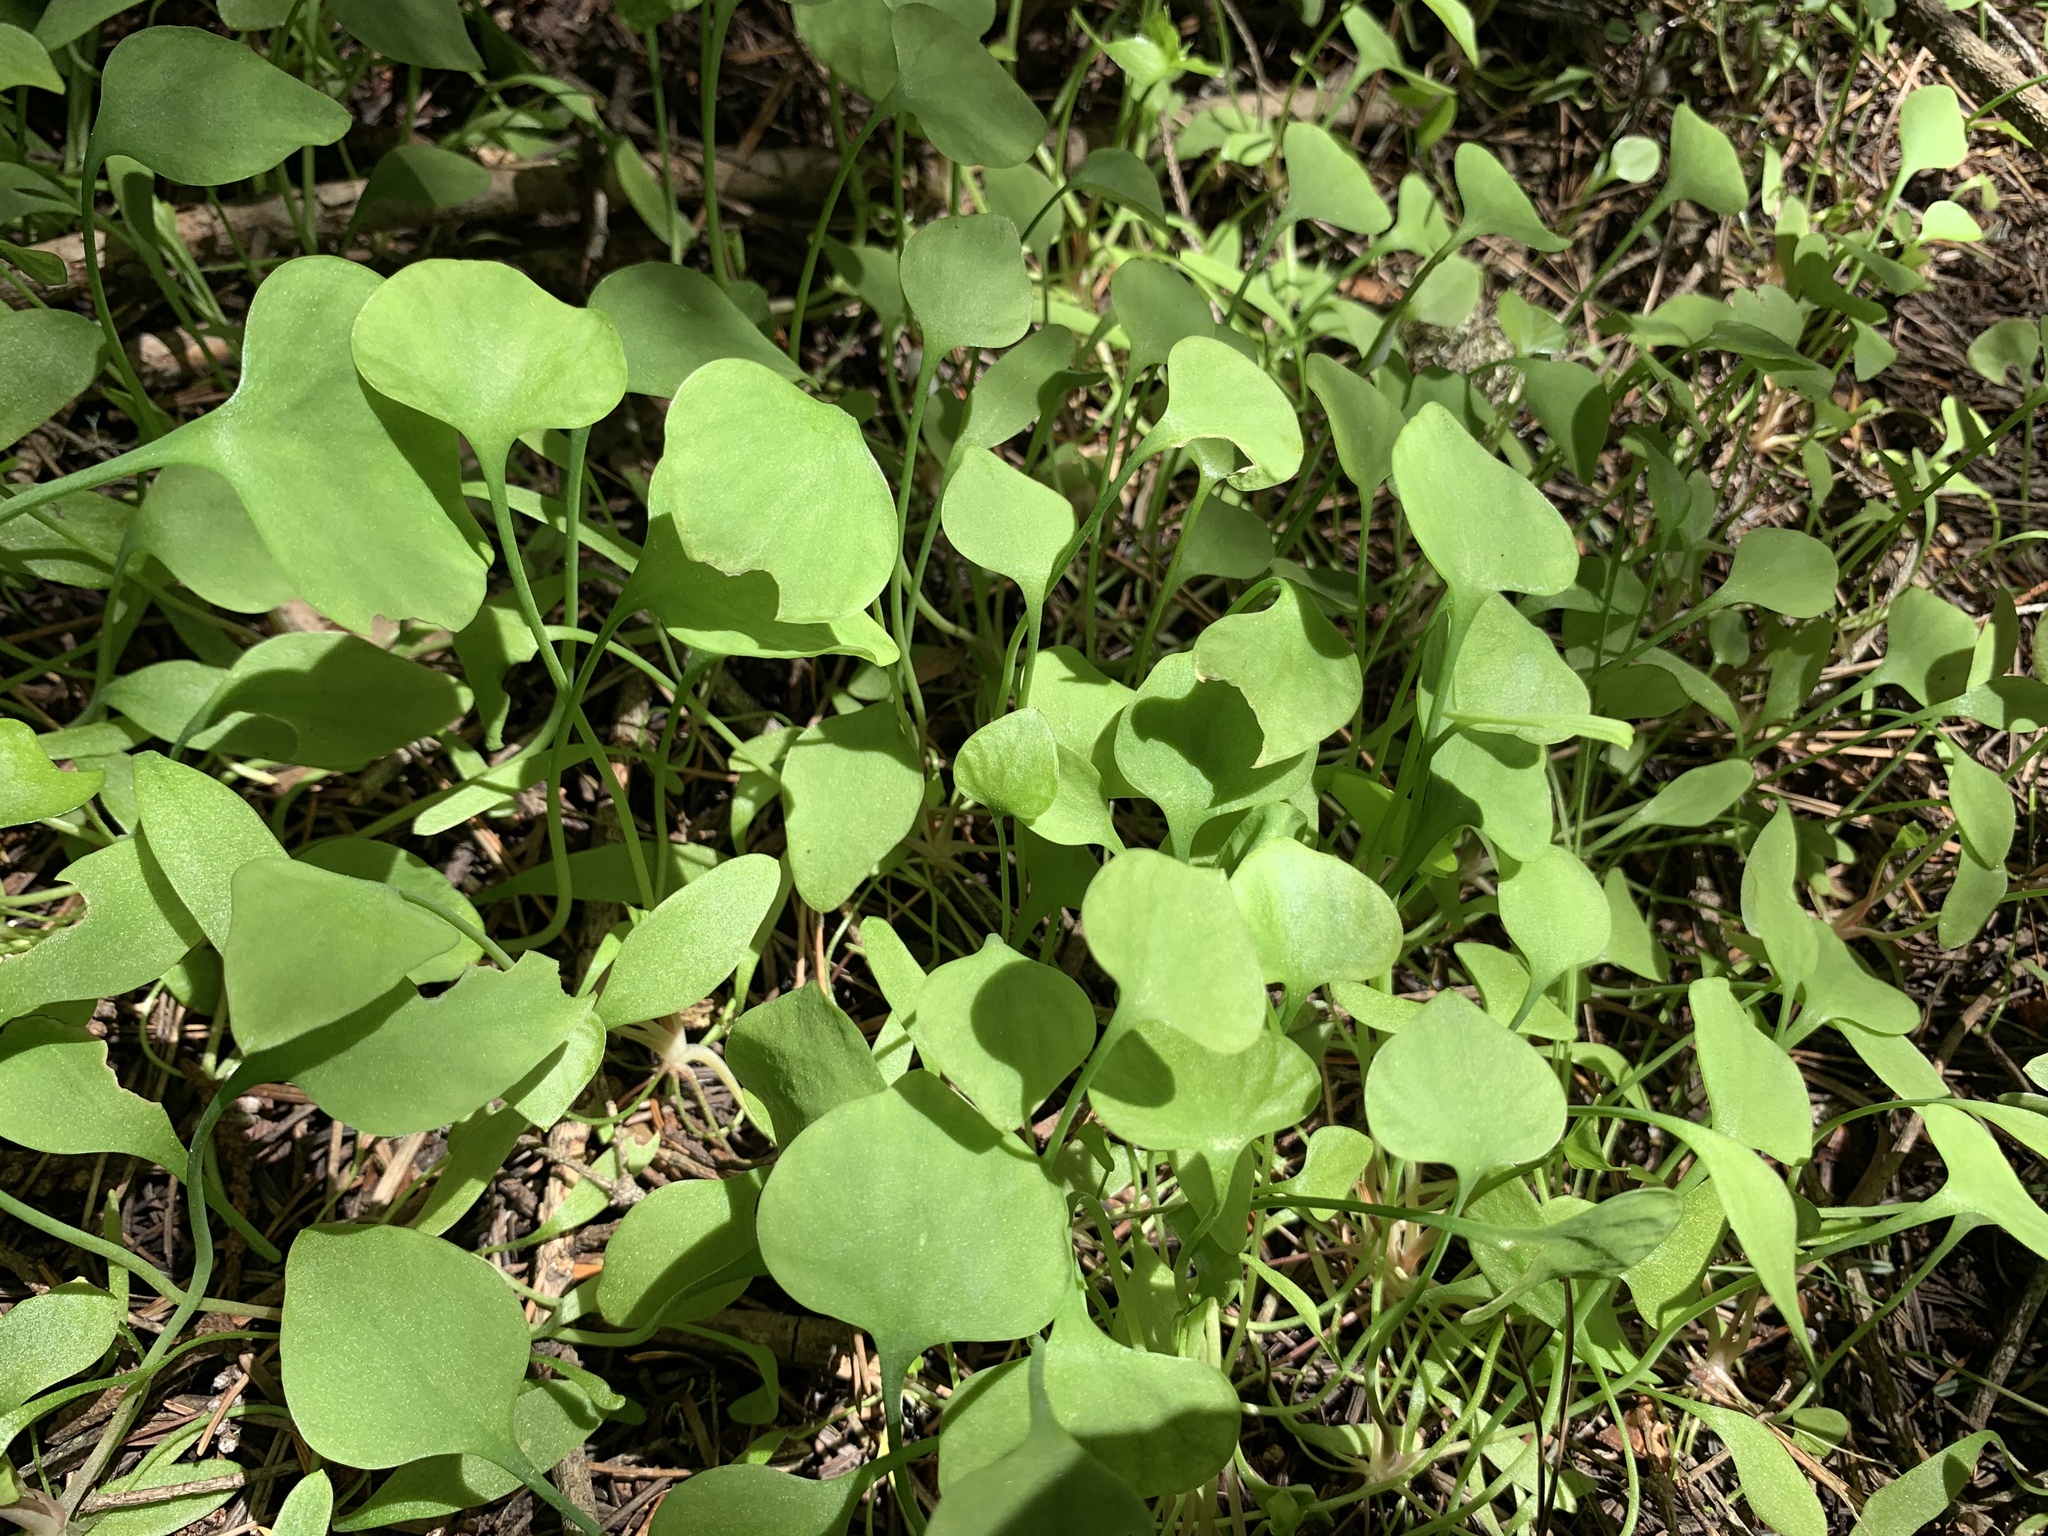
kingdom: Plantae
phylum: Tracheophyta
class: Magnoliopsida
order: Caryophyllales
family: Montiaceae
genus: Claytonia
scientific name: Claytonia perfoliata
